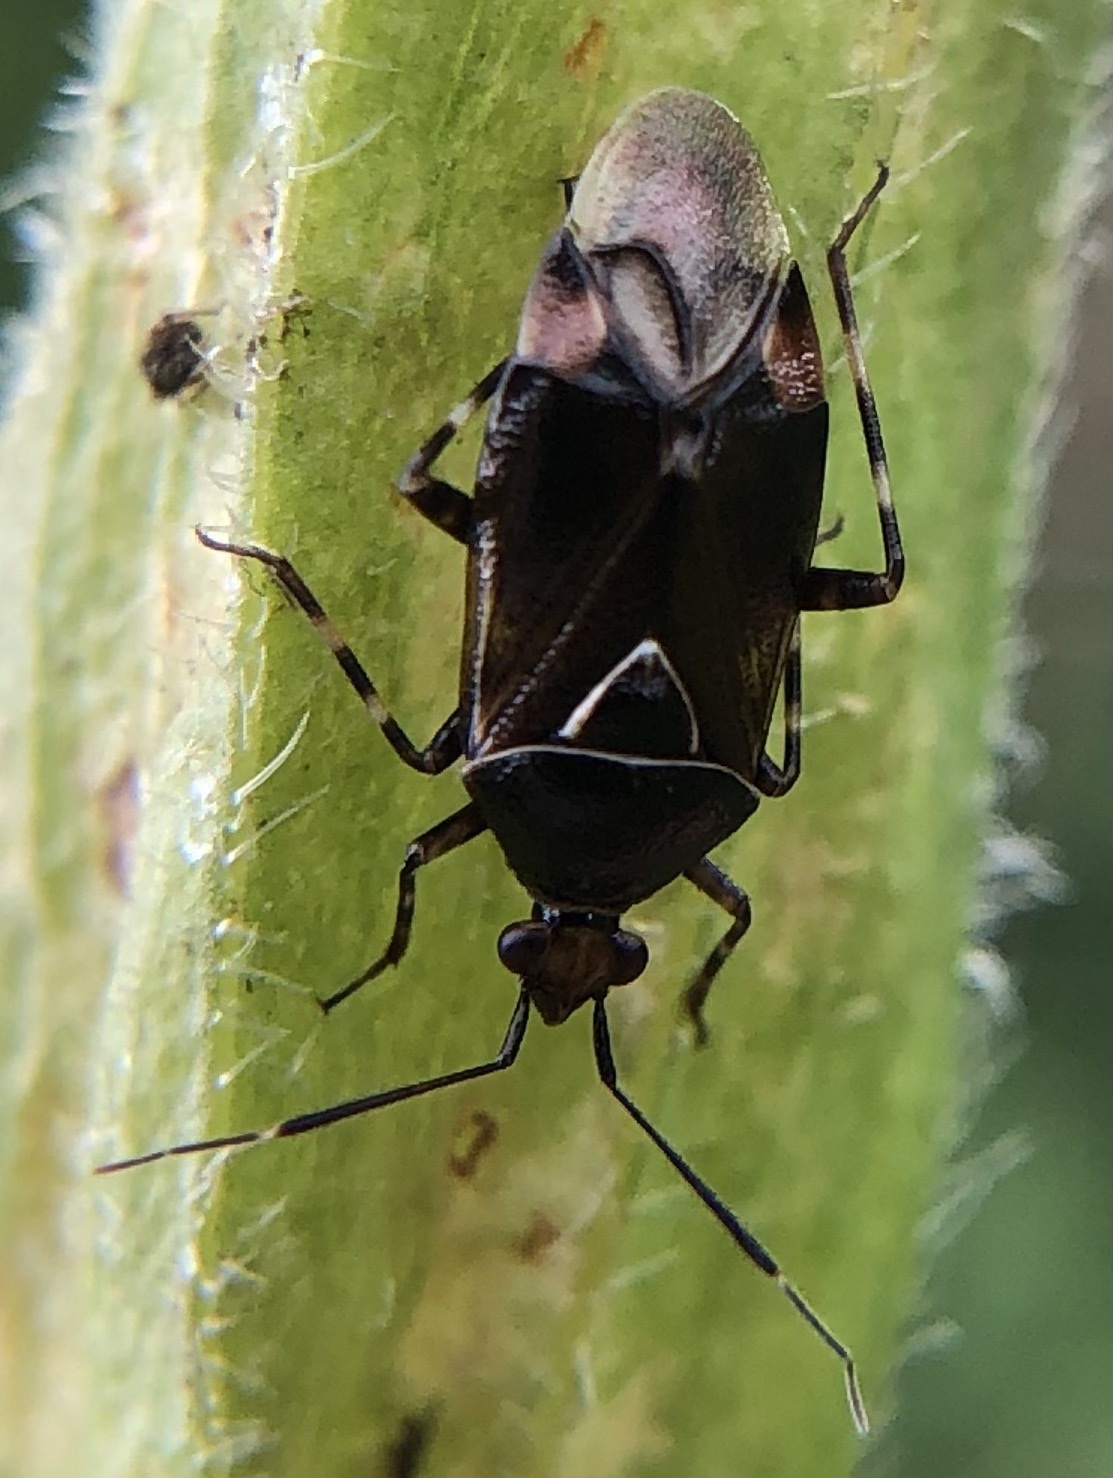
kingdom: Animalia
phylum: Arthropoda
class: Insecta
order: Hemiptera
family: Miridae
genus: Deraeocoris
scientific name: Deraeocoris flavilinea
